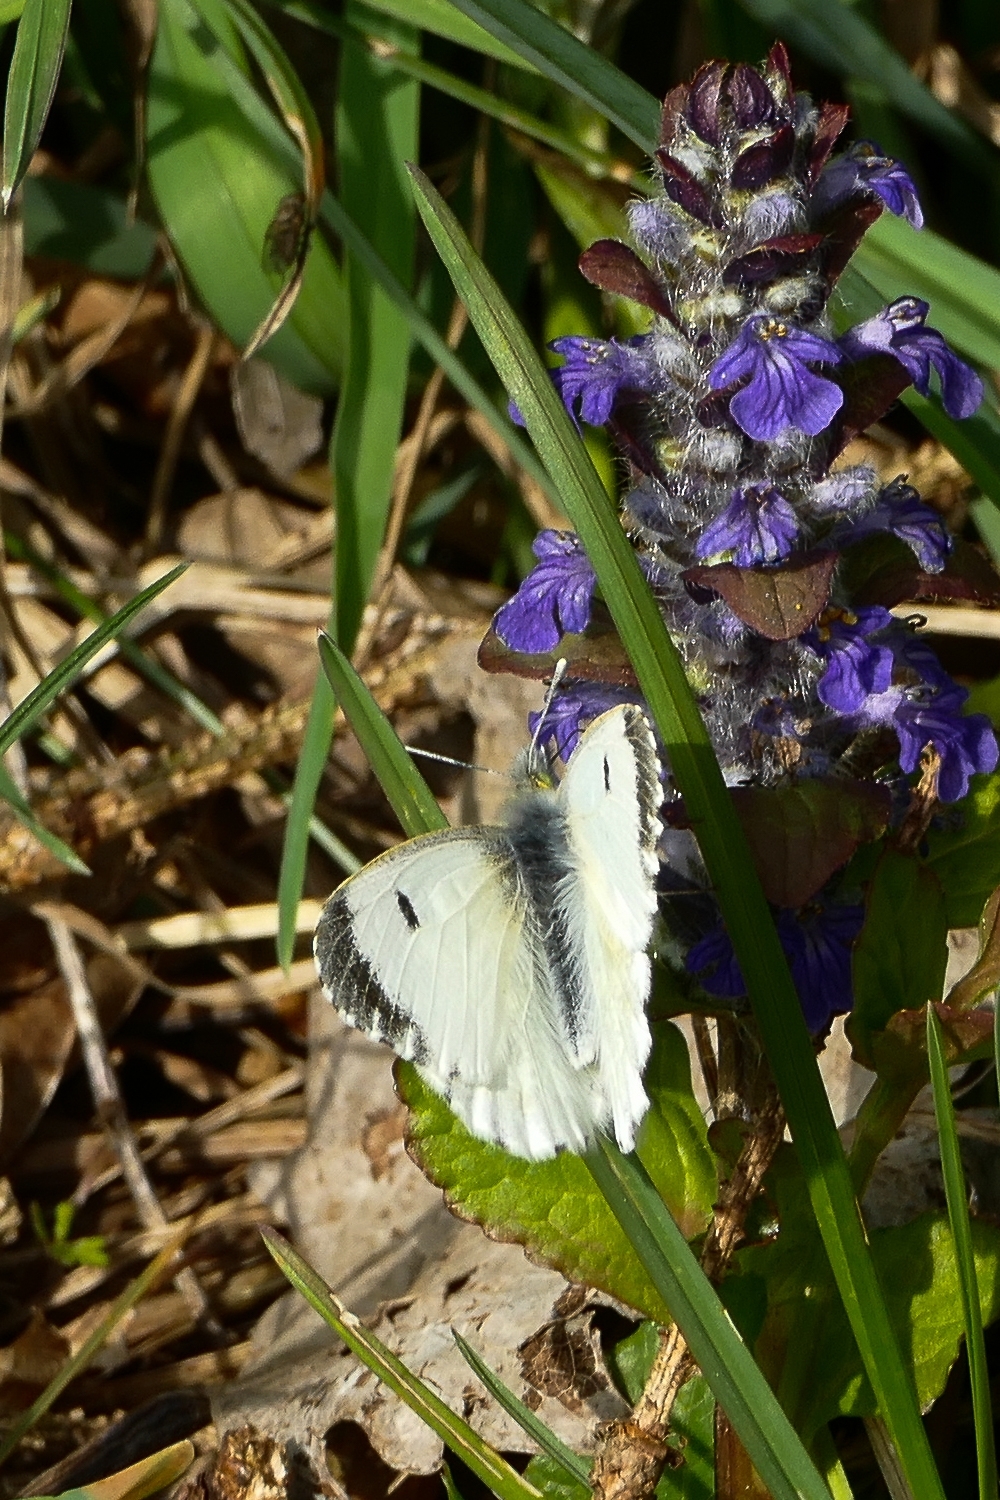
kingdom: Animalia
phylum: Arthropoda
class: Insecta
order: Lepidoptera
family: Pieridae
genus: Anthocharis
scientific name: Anthocharis cardamines
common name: Orange-tip
